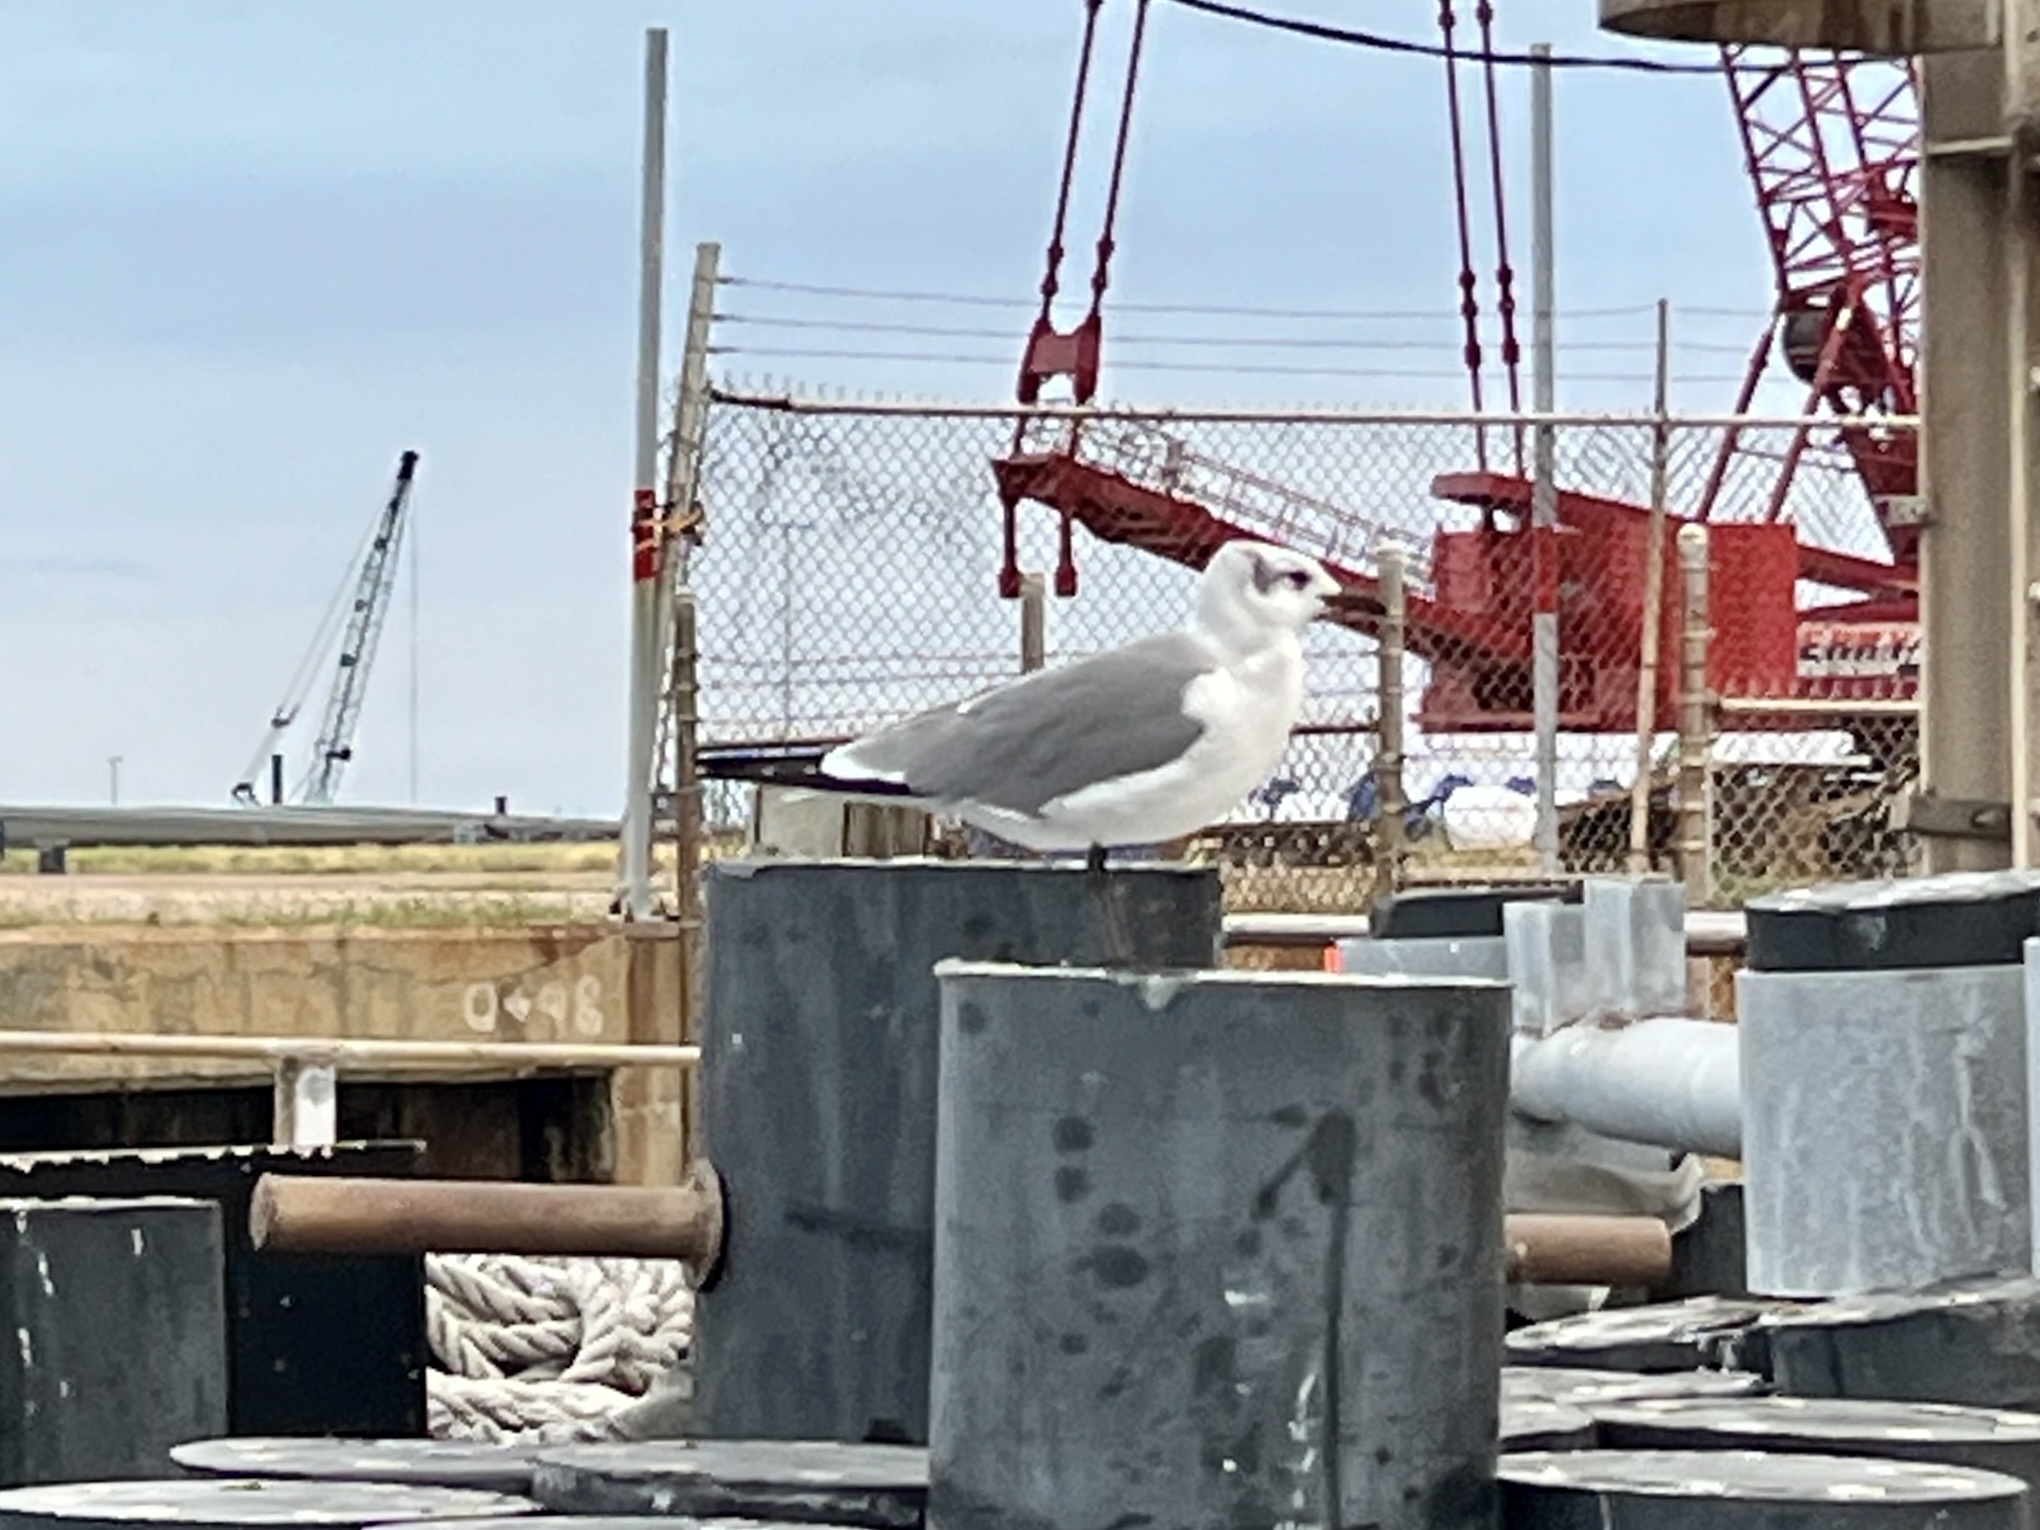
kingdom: Animalia
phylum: Chordata
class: Aves
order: Charadriiformes
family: Laridae
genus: Leucophaeus
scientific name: Leucophaeus atricilla
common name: Laughing gull
